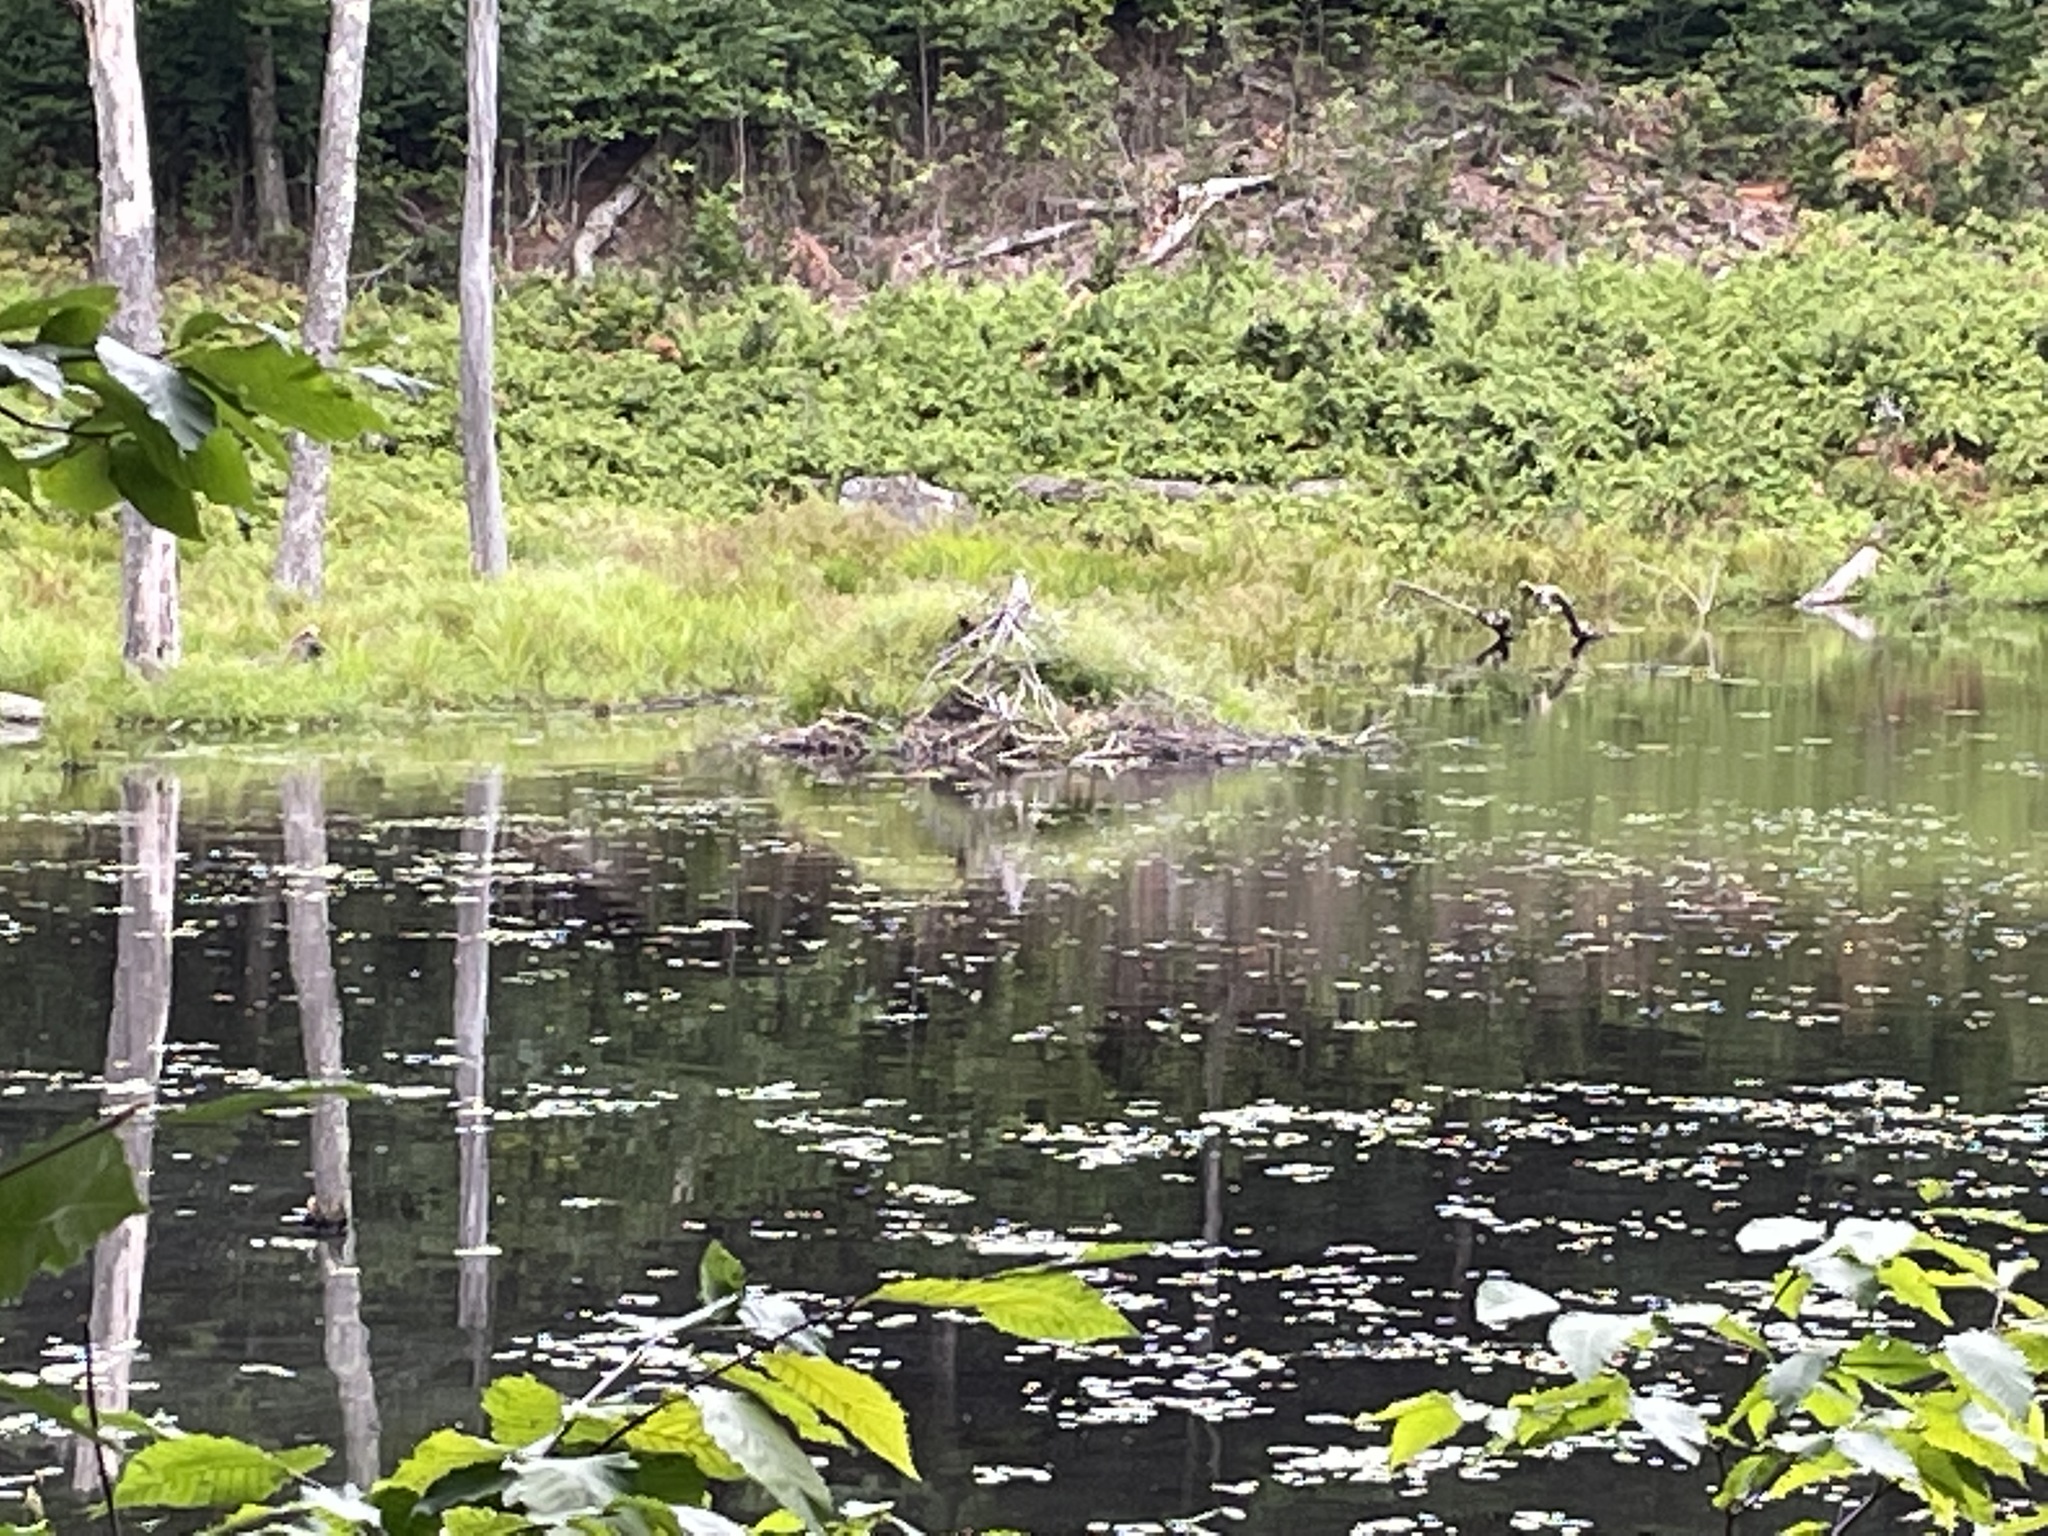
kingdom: Animalia
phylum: Chordata
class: Mammalia
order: Rodentia
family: Castoridae
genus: Castor
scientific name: Castor canadensis
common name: American beaver
